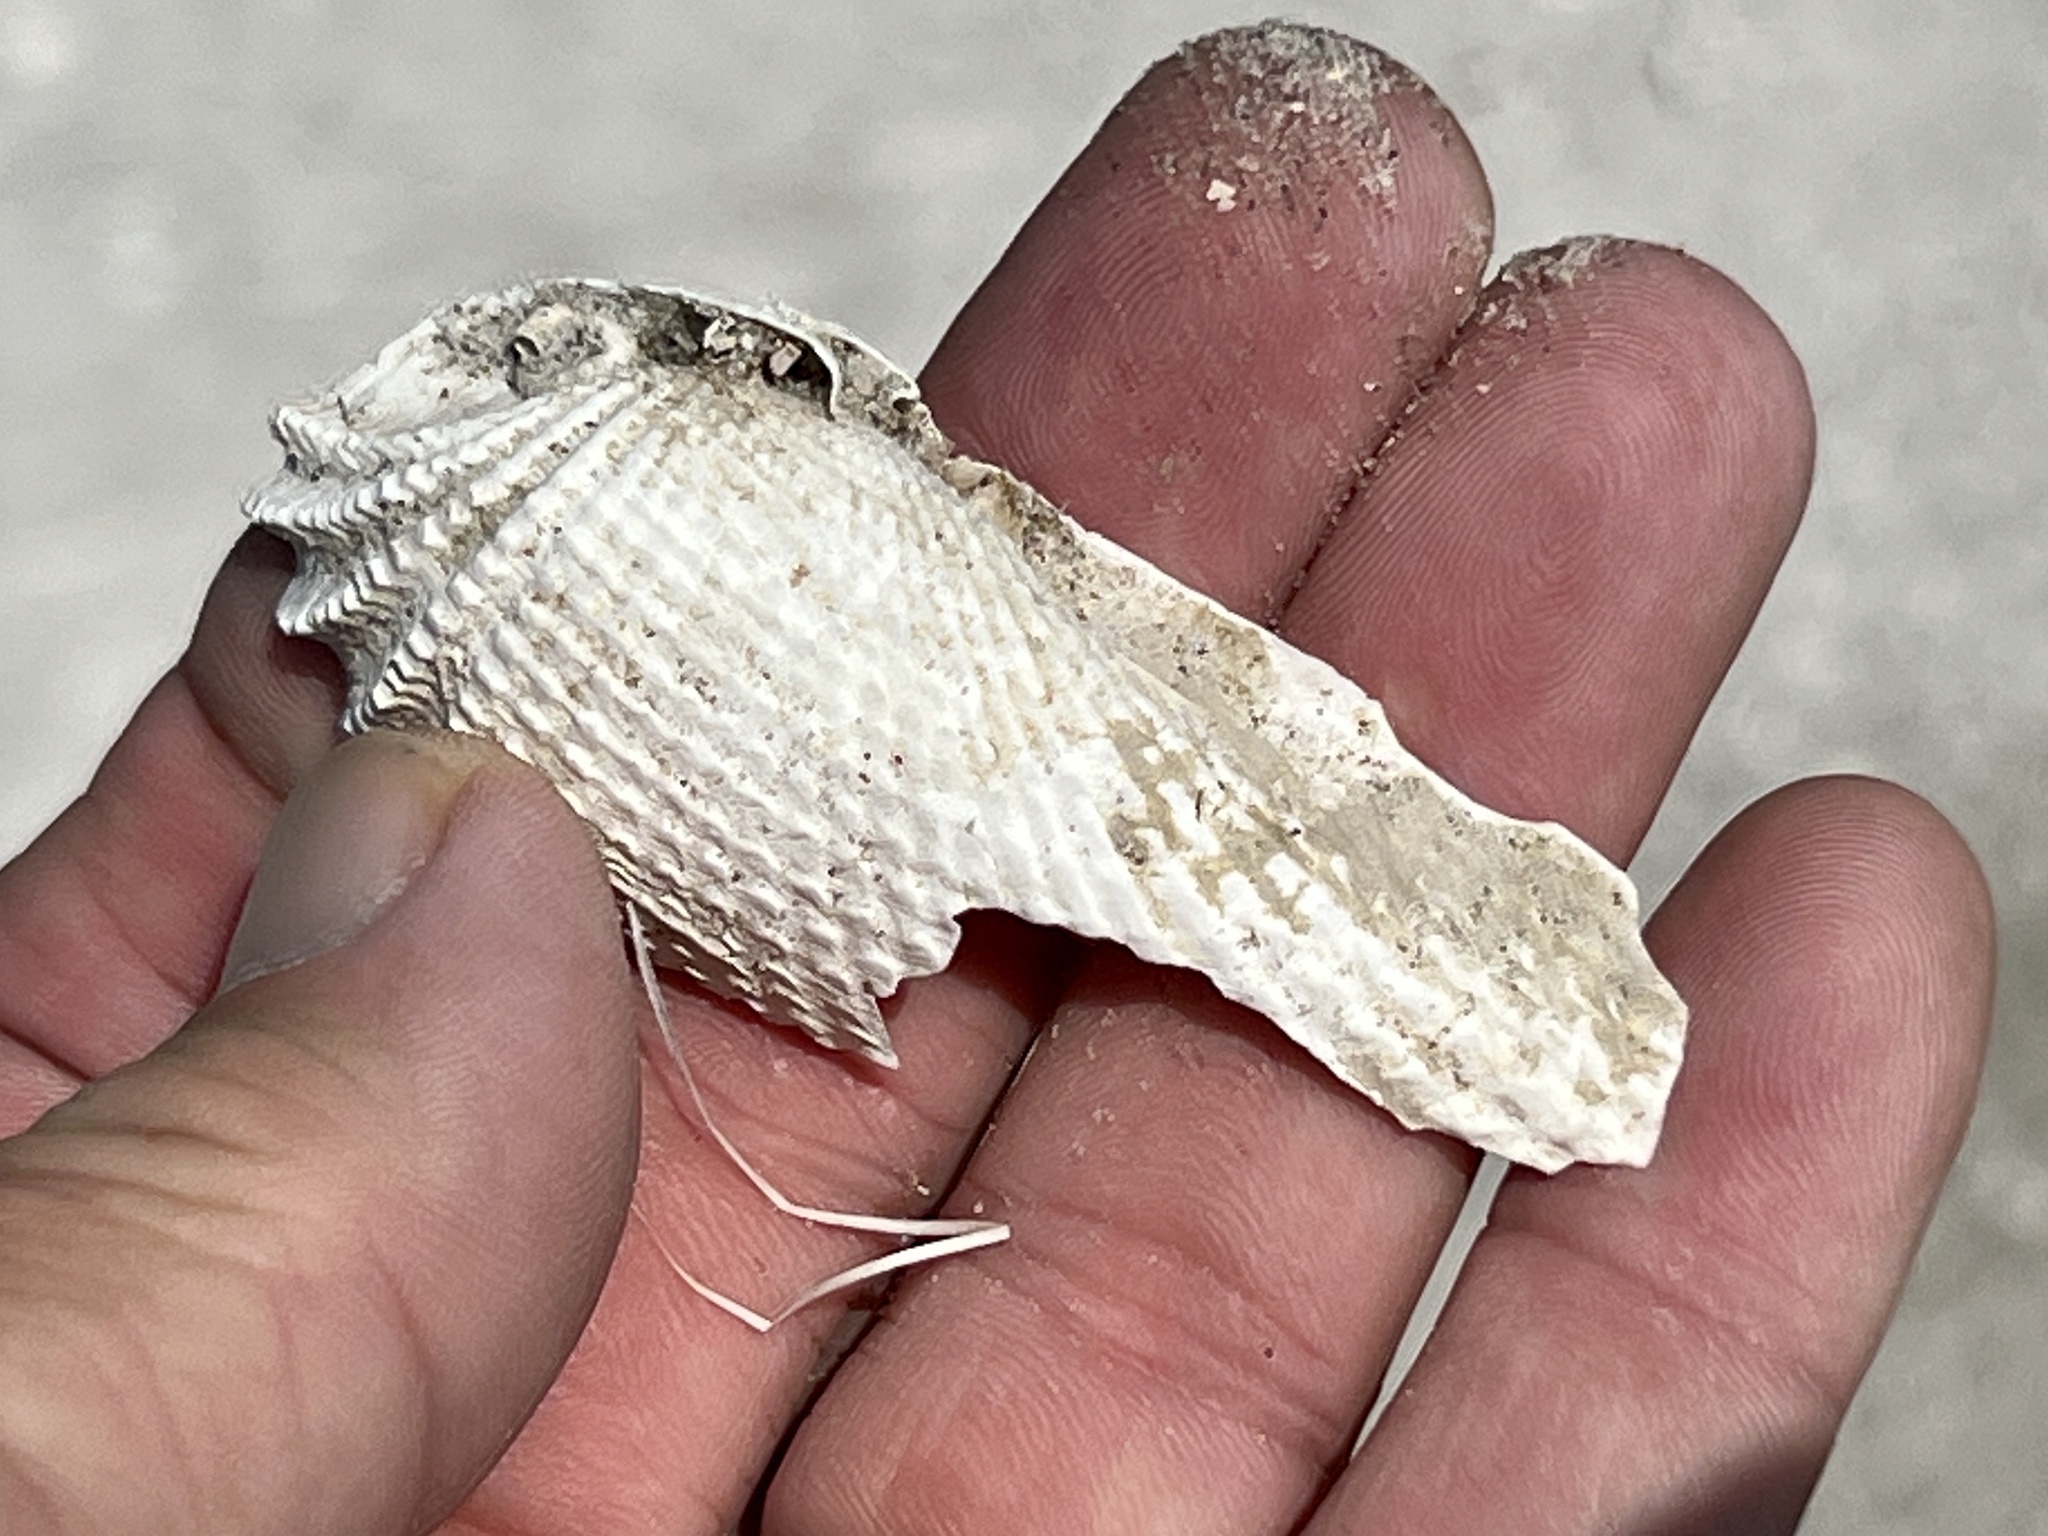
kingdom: Animalia
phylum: Mollusca
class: Bivalvia
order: Myida
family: Pholadidae
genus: Cyrtopleura
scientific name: Cyrtopleura costata
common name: Angel wing
